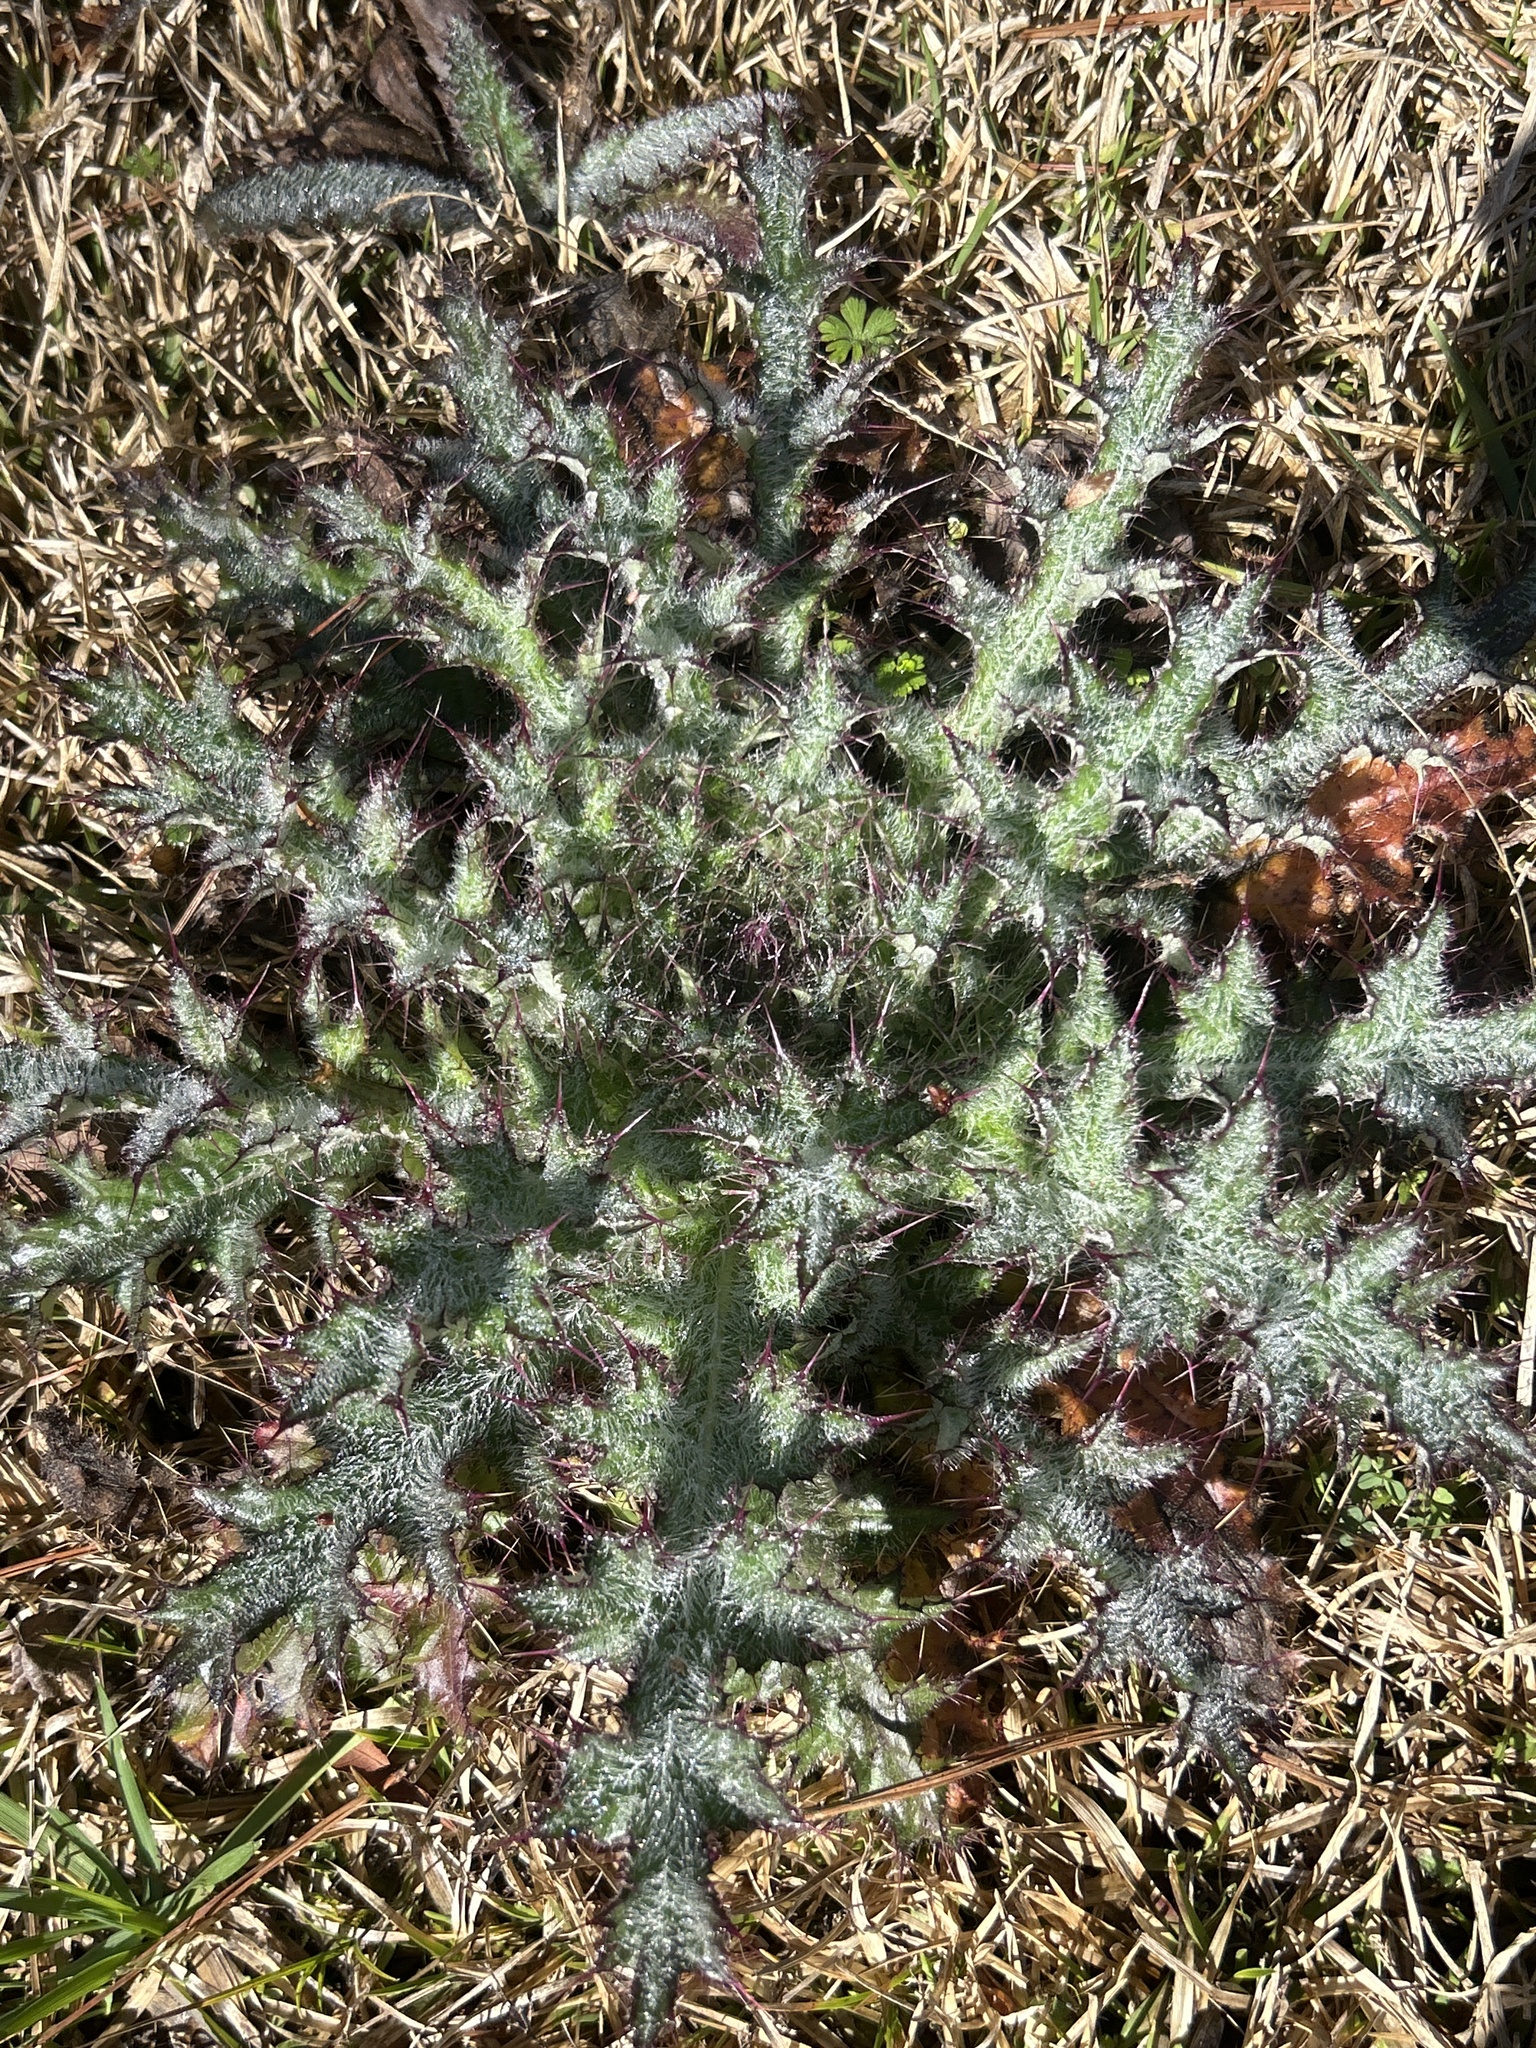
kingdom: Plantae
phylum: Tracheophyta
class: Magnoliopsida
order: Asterales
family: Asteraceae
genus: Cirsium
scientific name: Cirsium horridulum
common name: Bristly thistle
